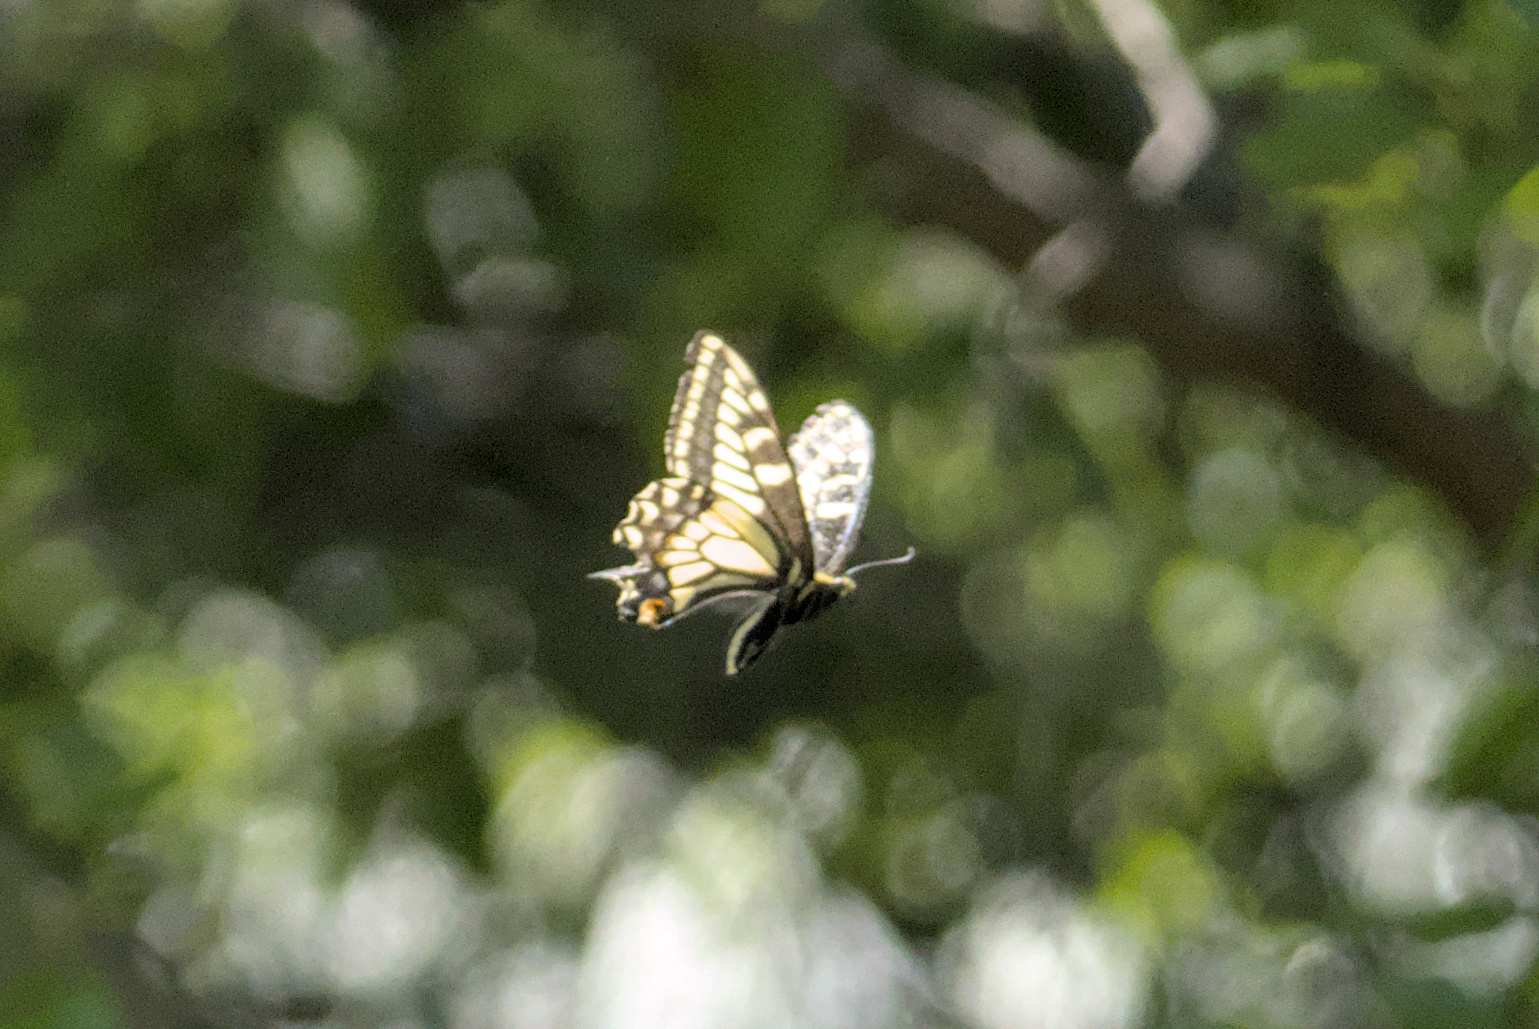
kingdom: Animalia
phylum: Arthropoda
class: Insecta
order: Lepidoptera
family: Papilionidae
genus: Papilio
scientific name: Papilio zelicaon
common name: Anise swallowtail
